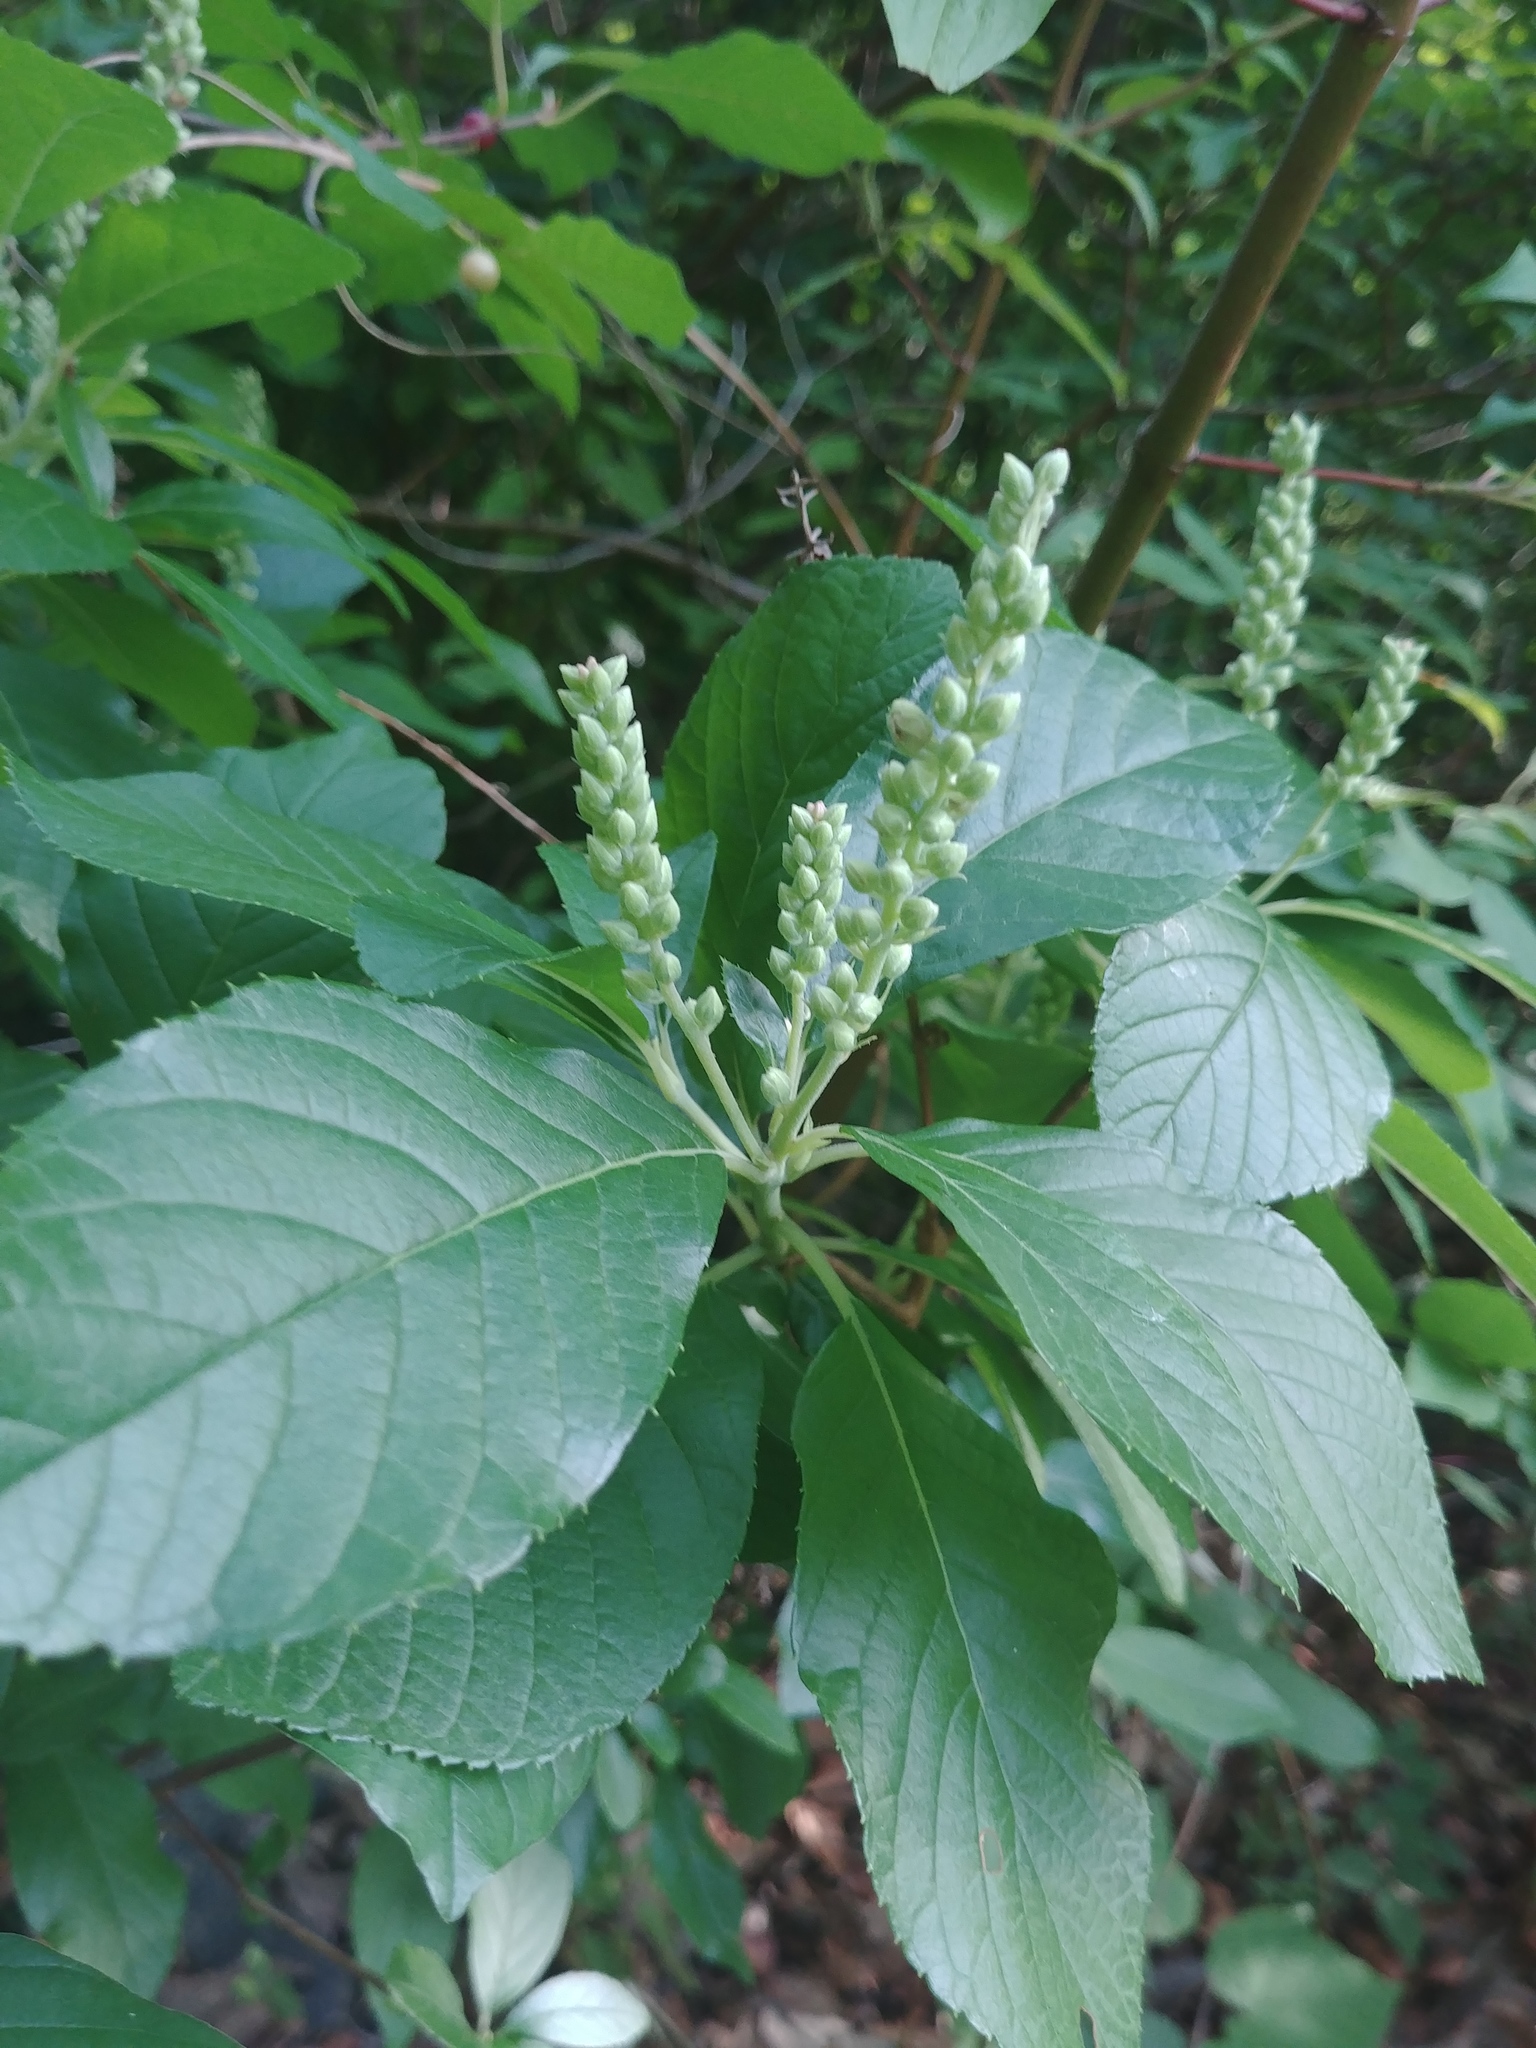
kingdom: Plantae
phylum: Tracheophyta
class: Magnoliopsida
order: Ericales
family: Clethraceae
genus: Clethra
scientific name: Clethra alnifolia
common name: Sweet pepperbush
